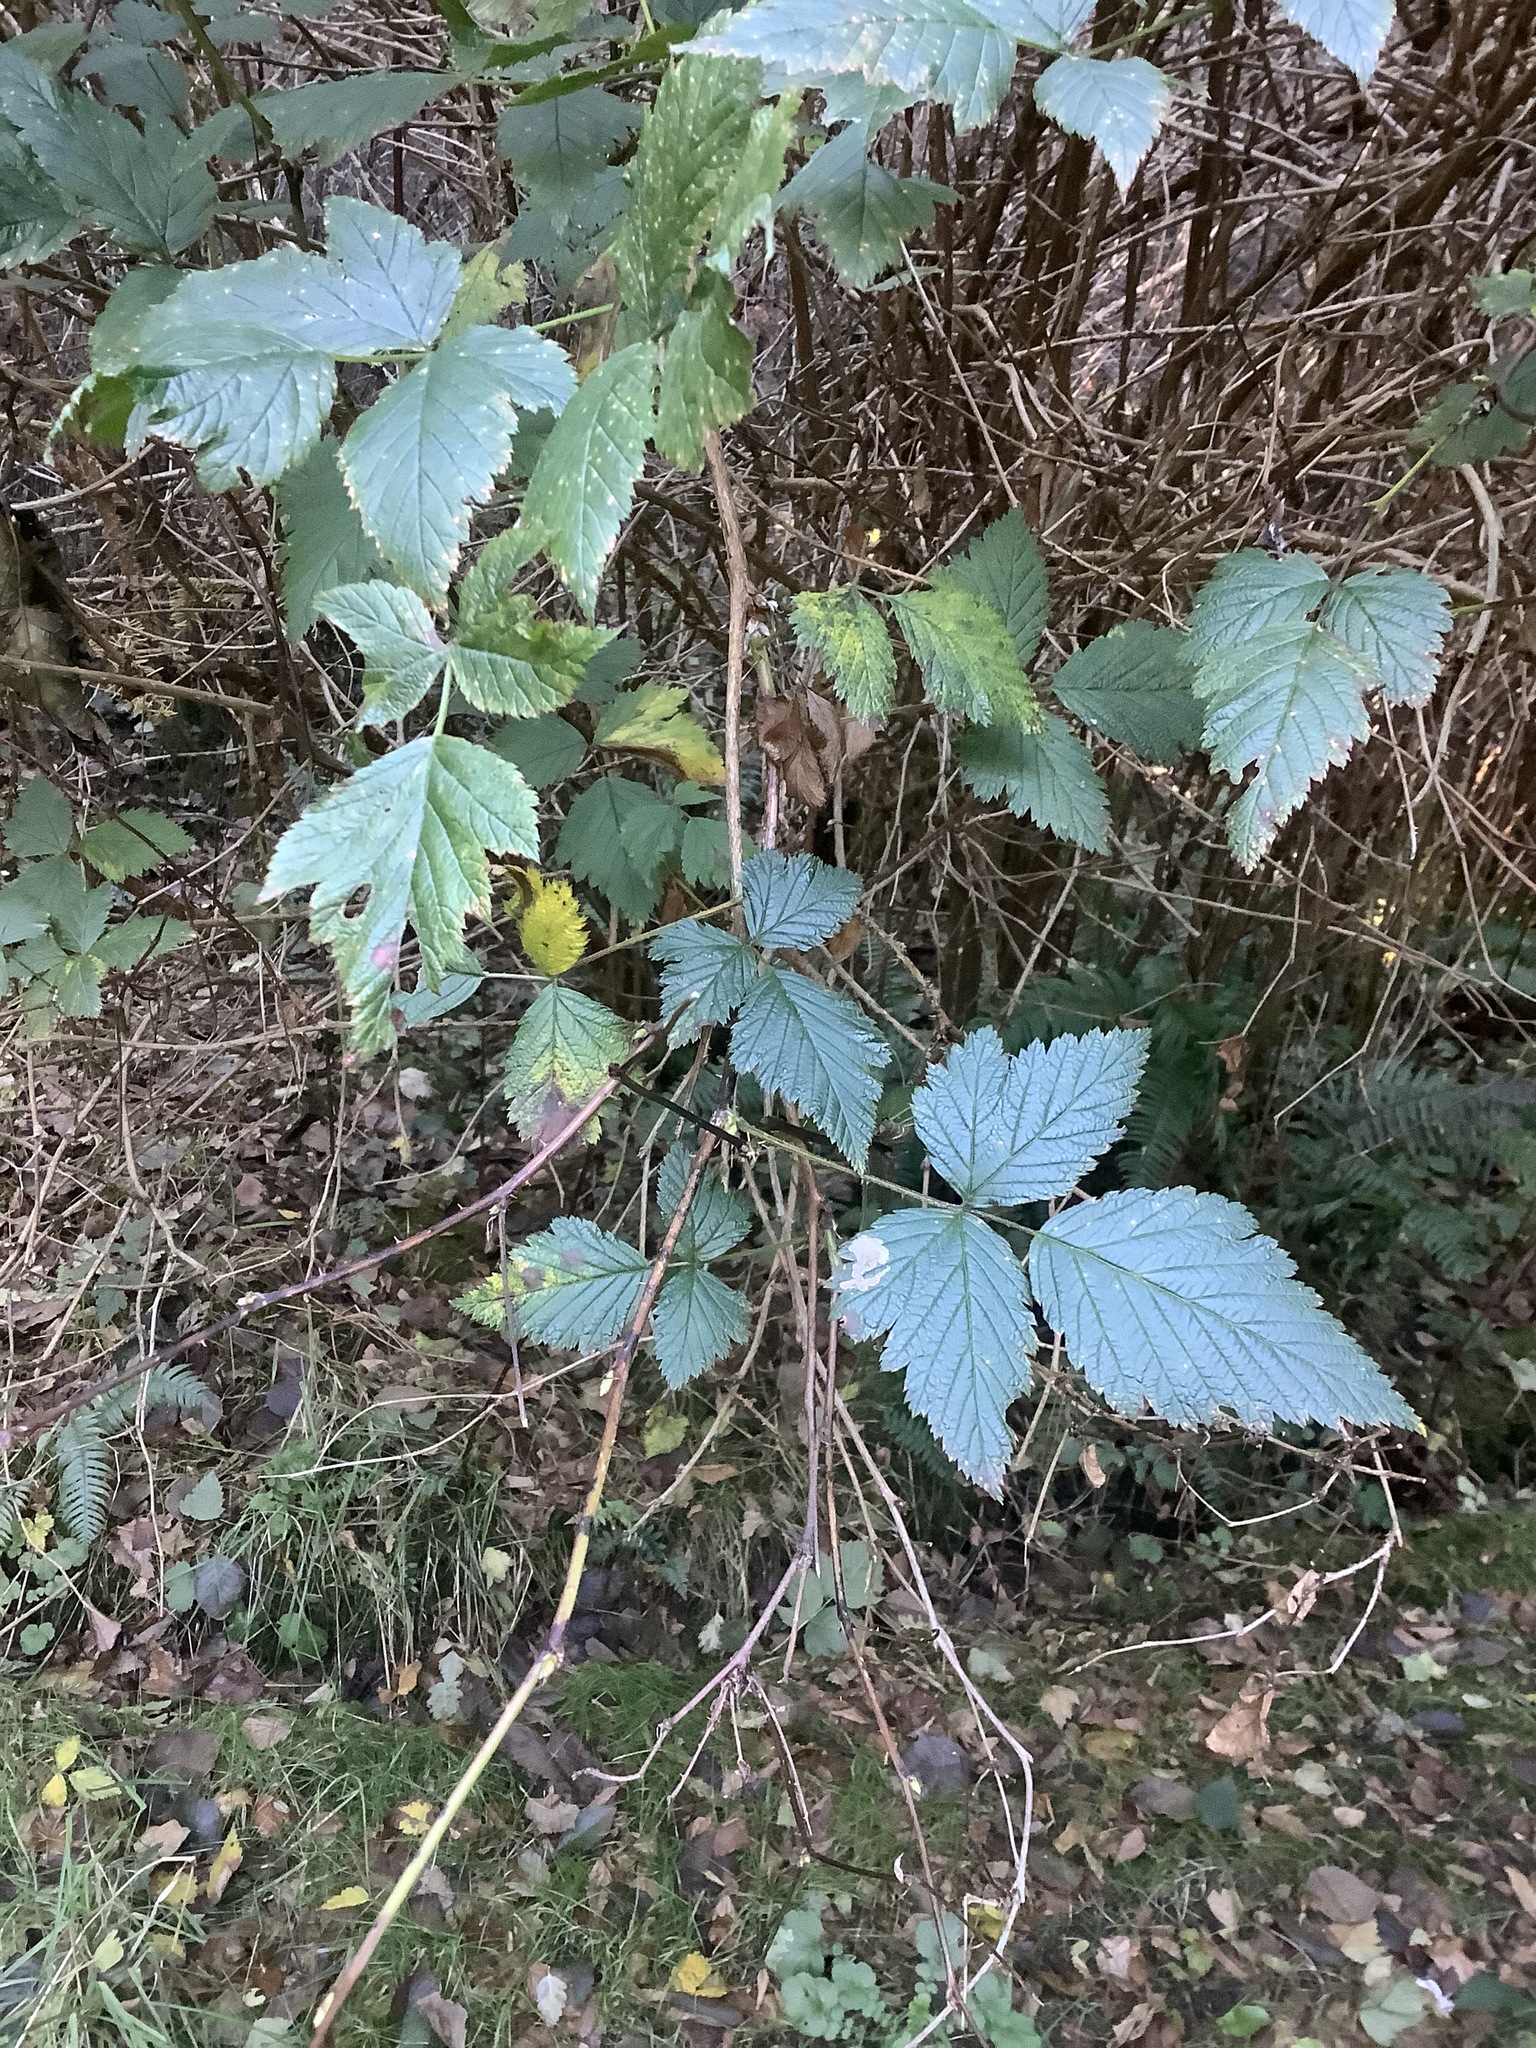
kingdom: Plantae
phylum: Tracheophyta
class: Magnoliopsida
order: Rosales
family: Rosaceae
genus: Rubus
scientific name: Rubus spectabilis
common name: Salmonberry
